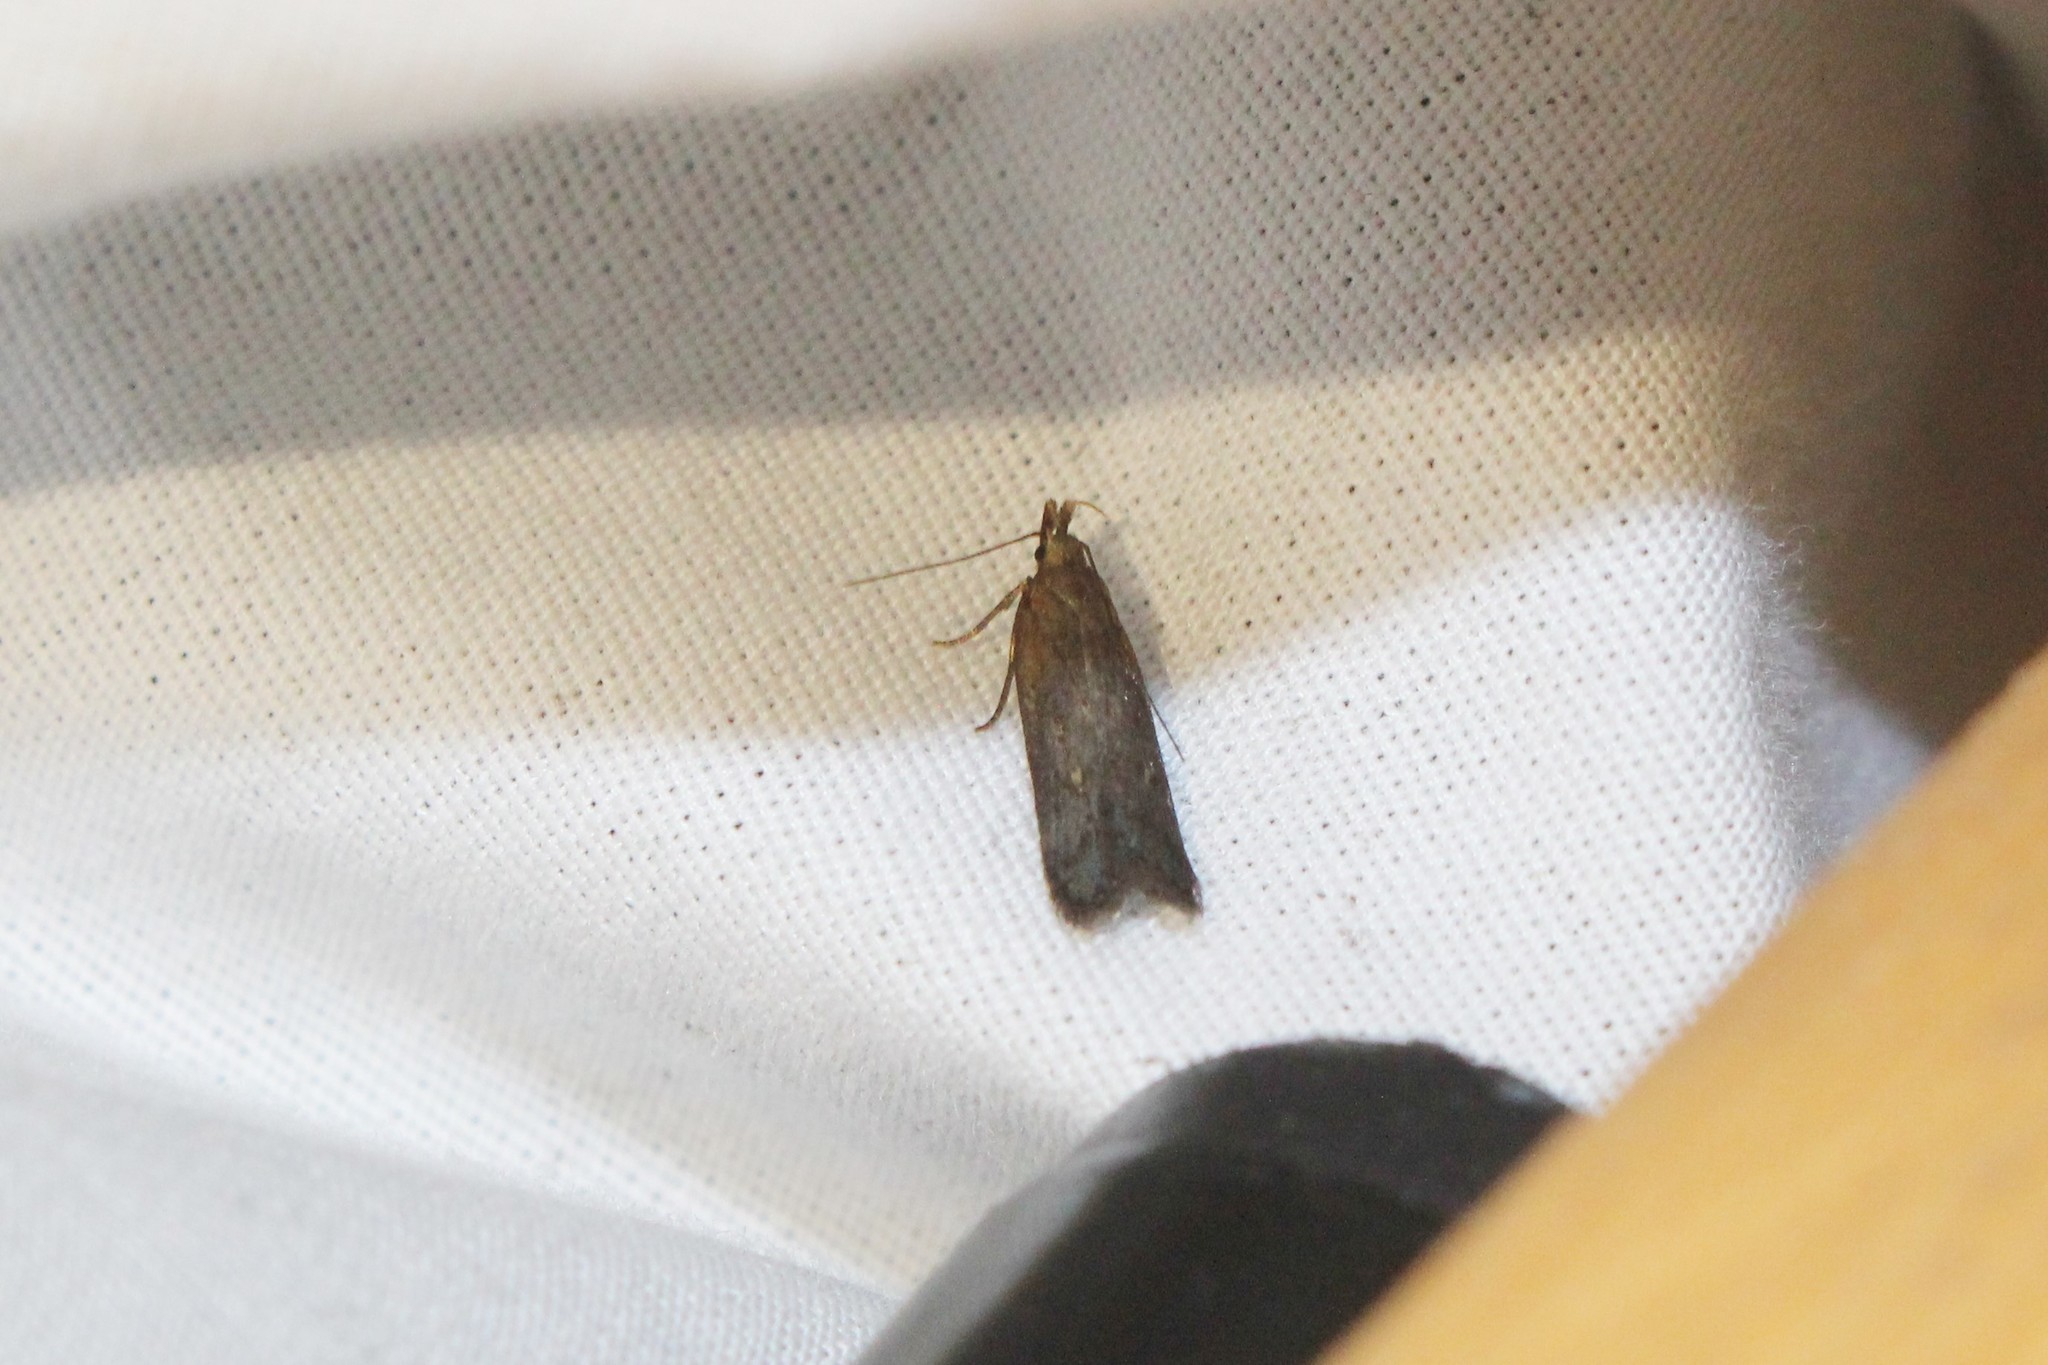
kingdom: Animalia
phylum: Arthropoda
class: Insecta
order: Lepidoptera
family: Gelechiidae
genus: Dichomeris
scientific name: Dichomeris copa
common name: Copa dichomeris moth
